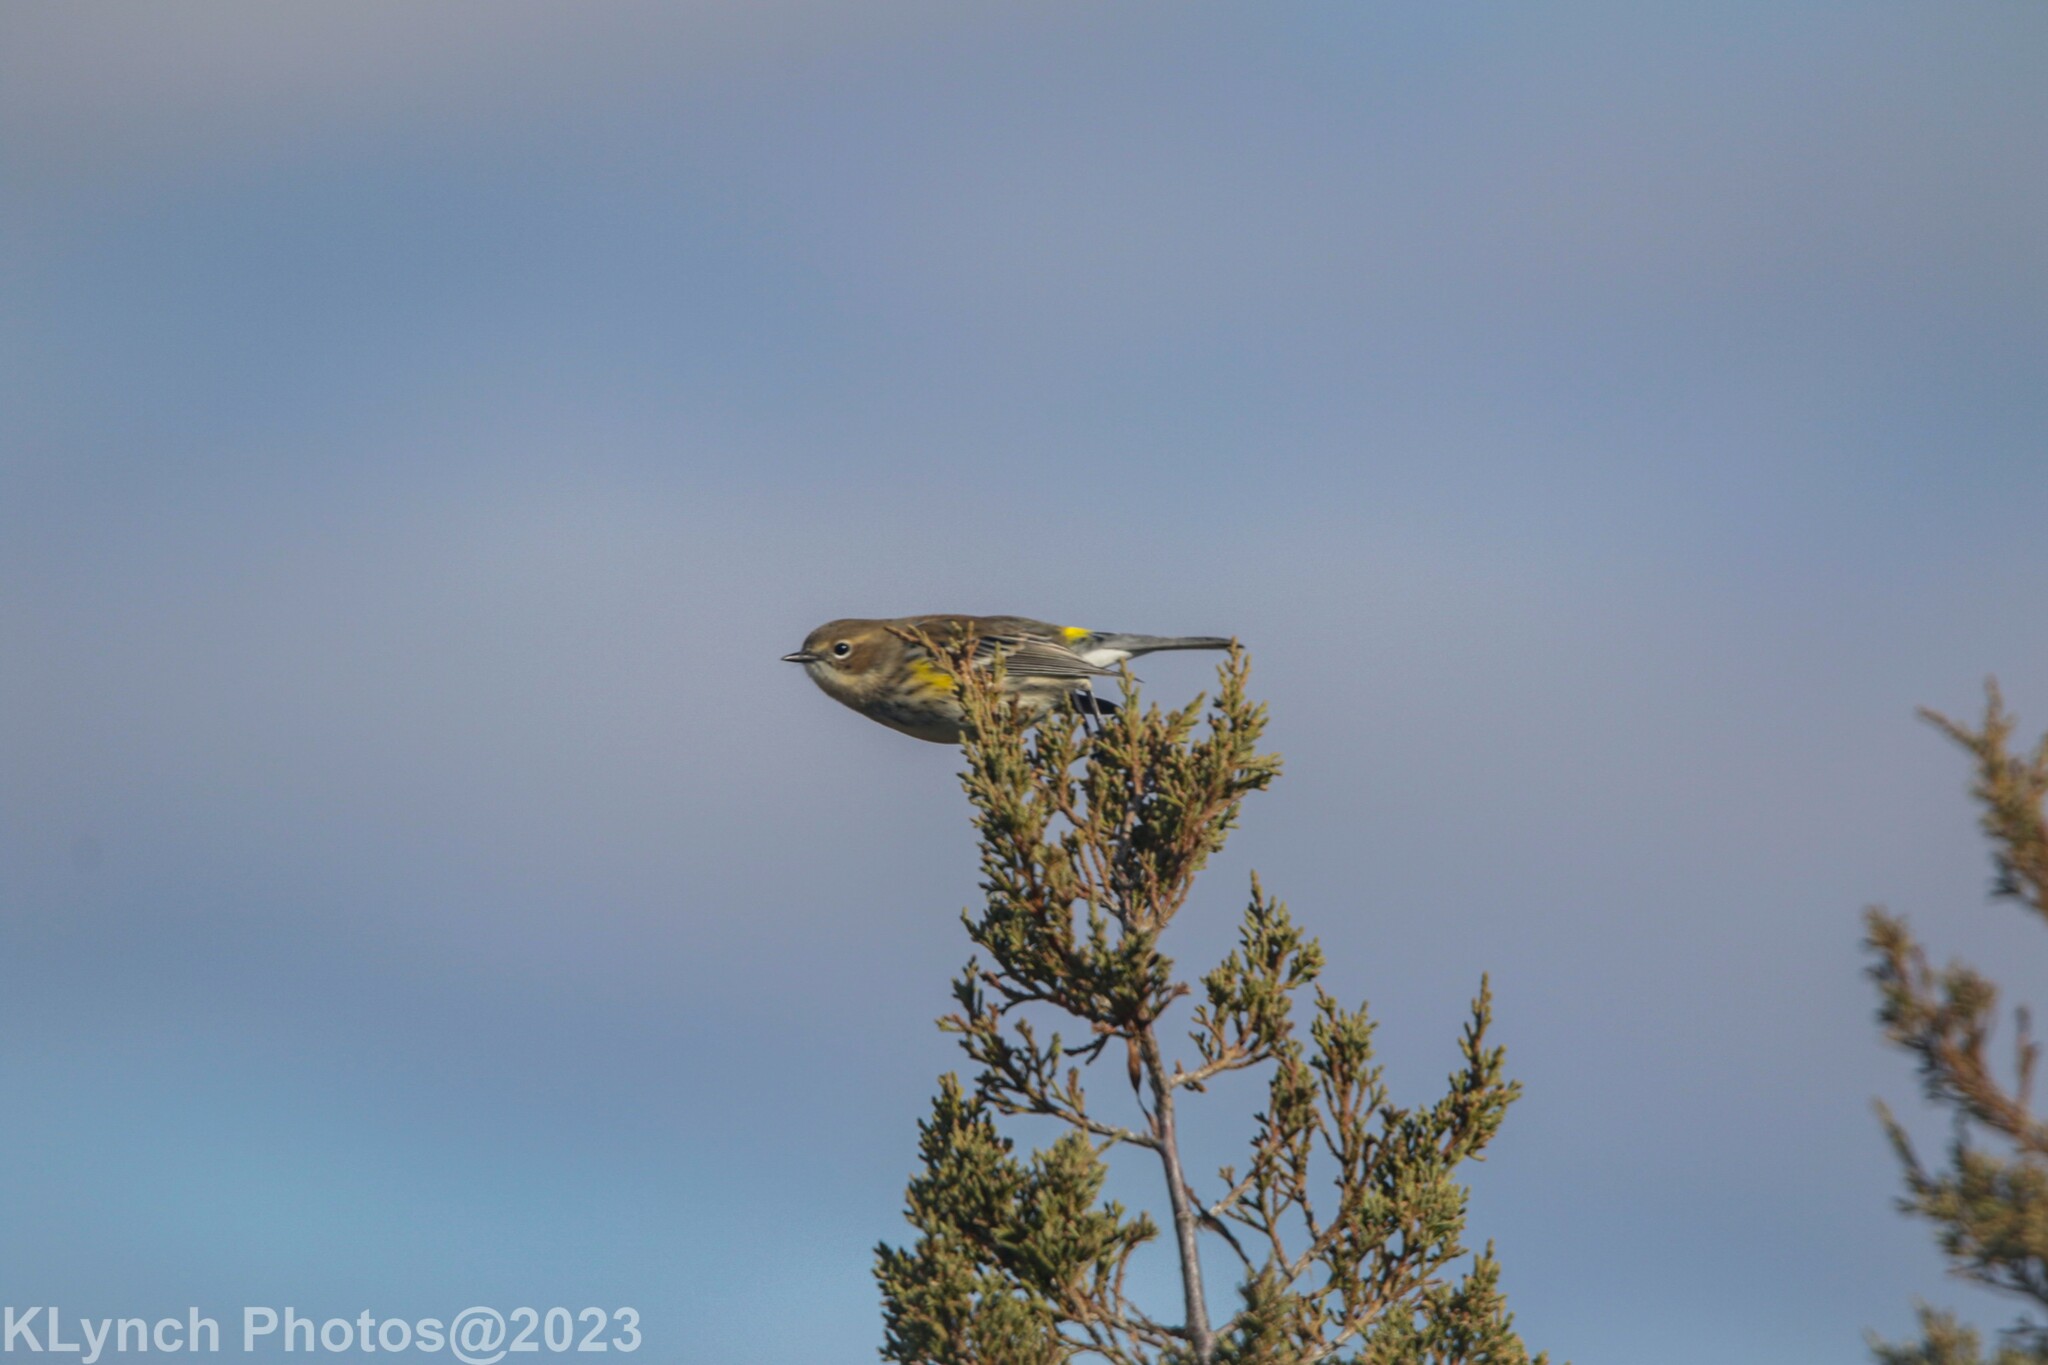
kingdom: Animalia
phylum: Chordata
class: Aves
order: Passeriformes
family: Parulidae
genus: Setophaga
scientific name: Setophaga coronata
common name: Myrtle warbler
